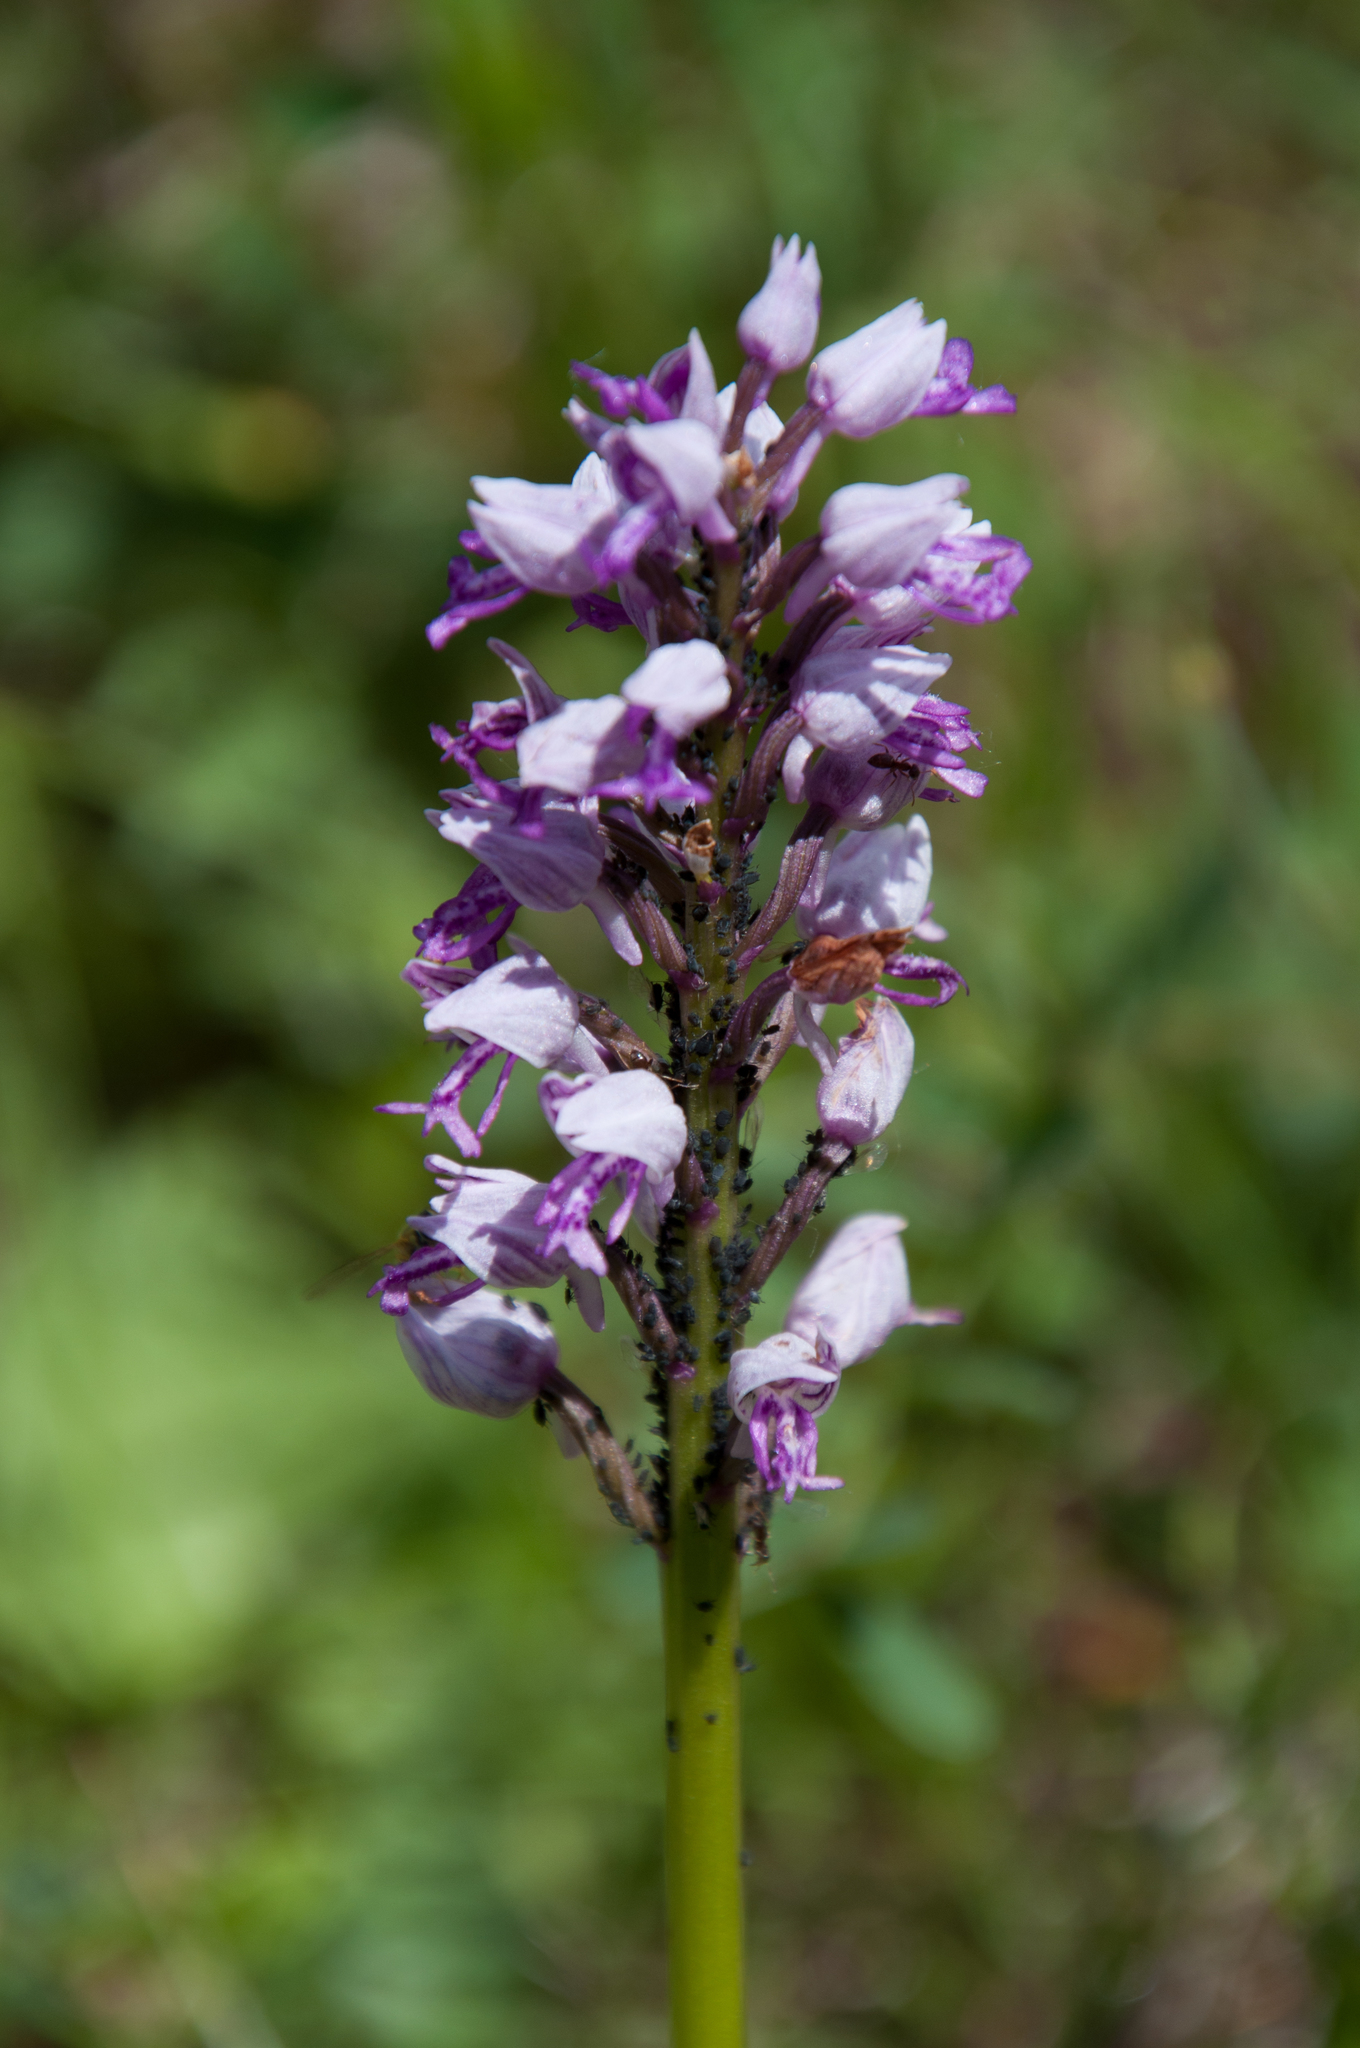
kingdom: Plantae
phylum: Tracheophyta
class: Liliopsida
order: Asparagales
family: Orchidaceae
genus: Orchis
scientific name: Orchis militaris
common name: Military orchid
